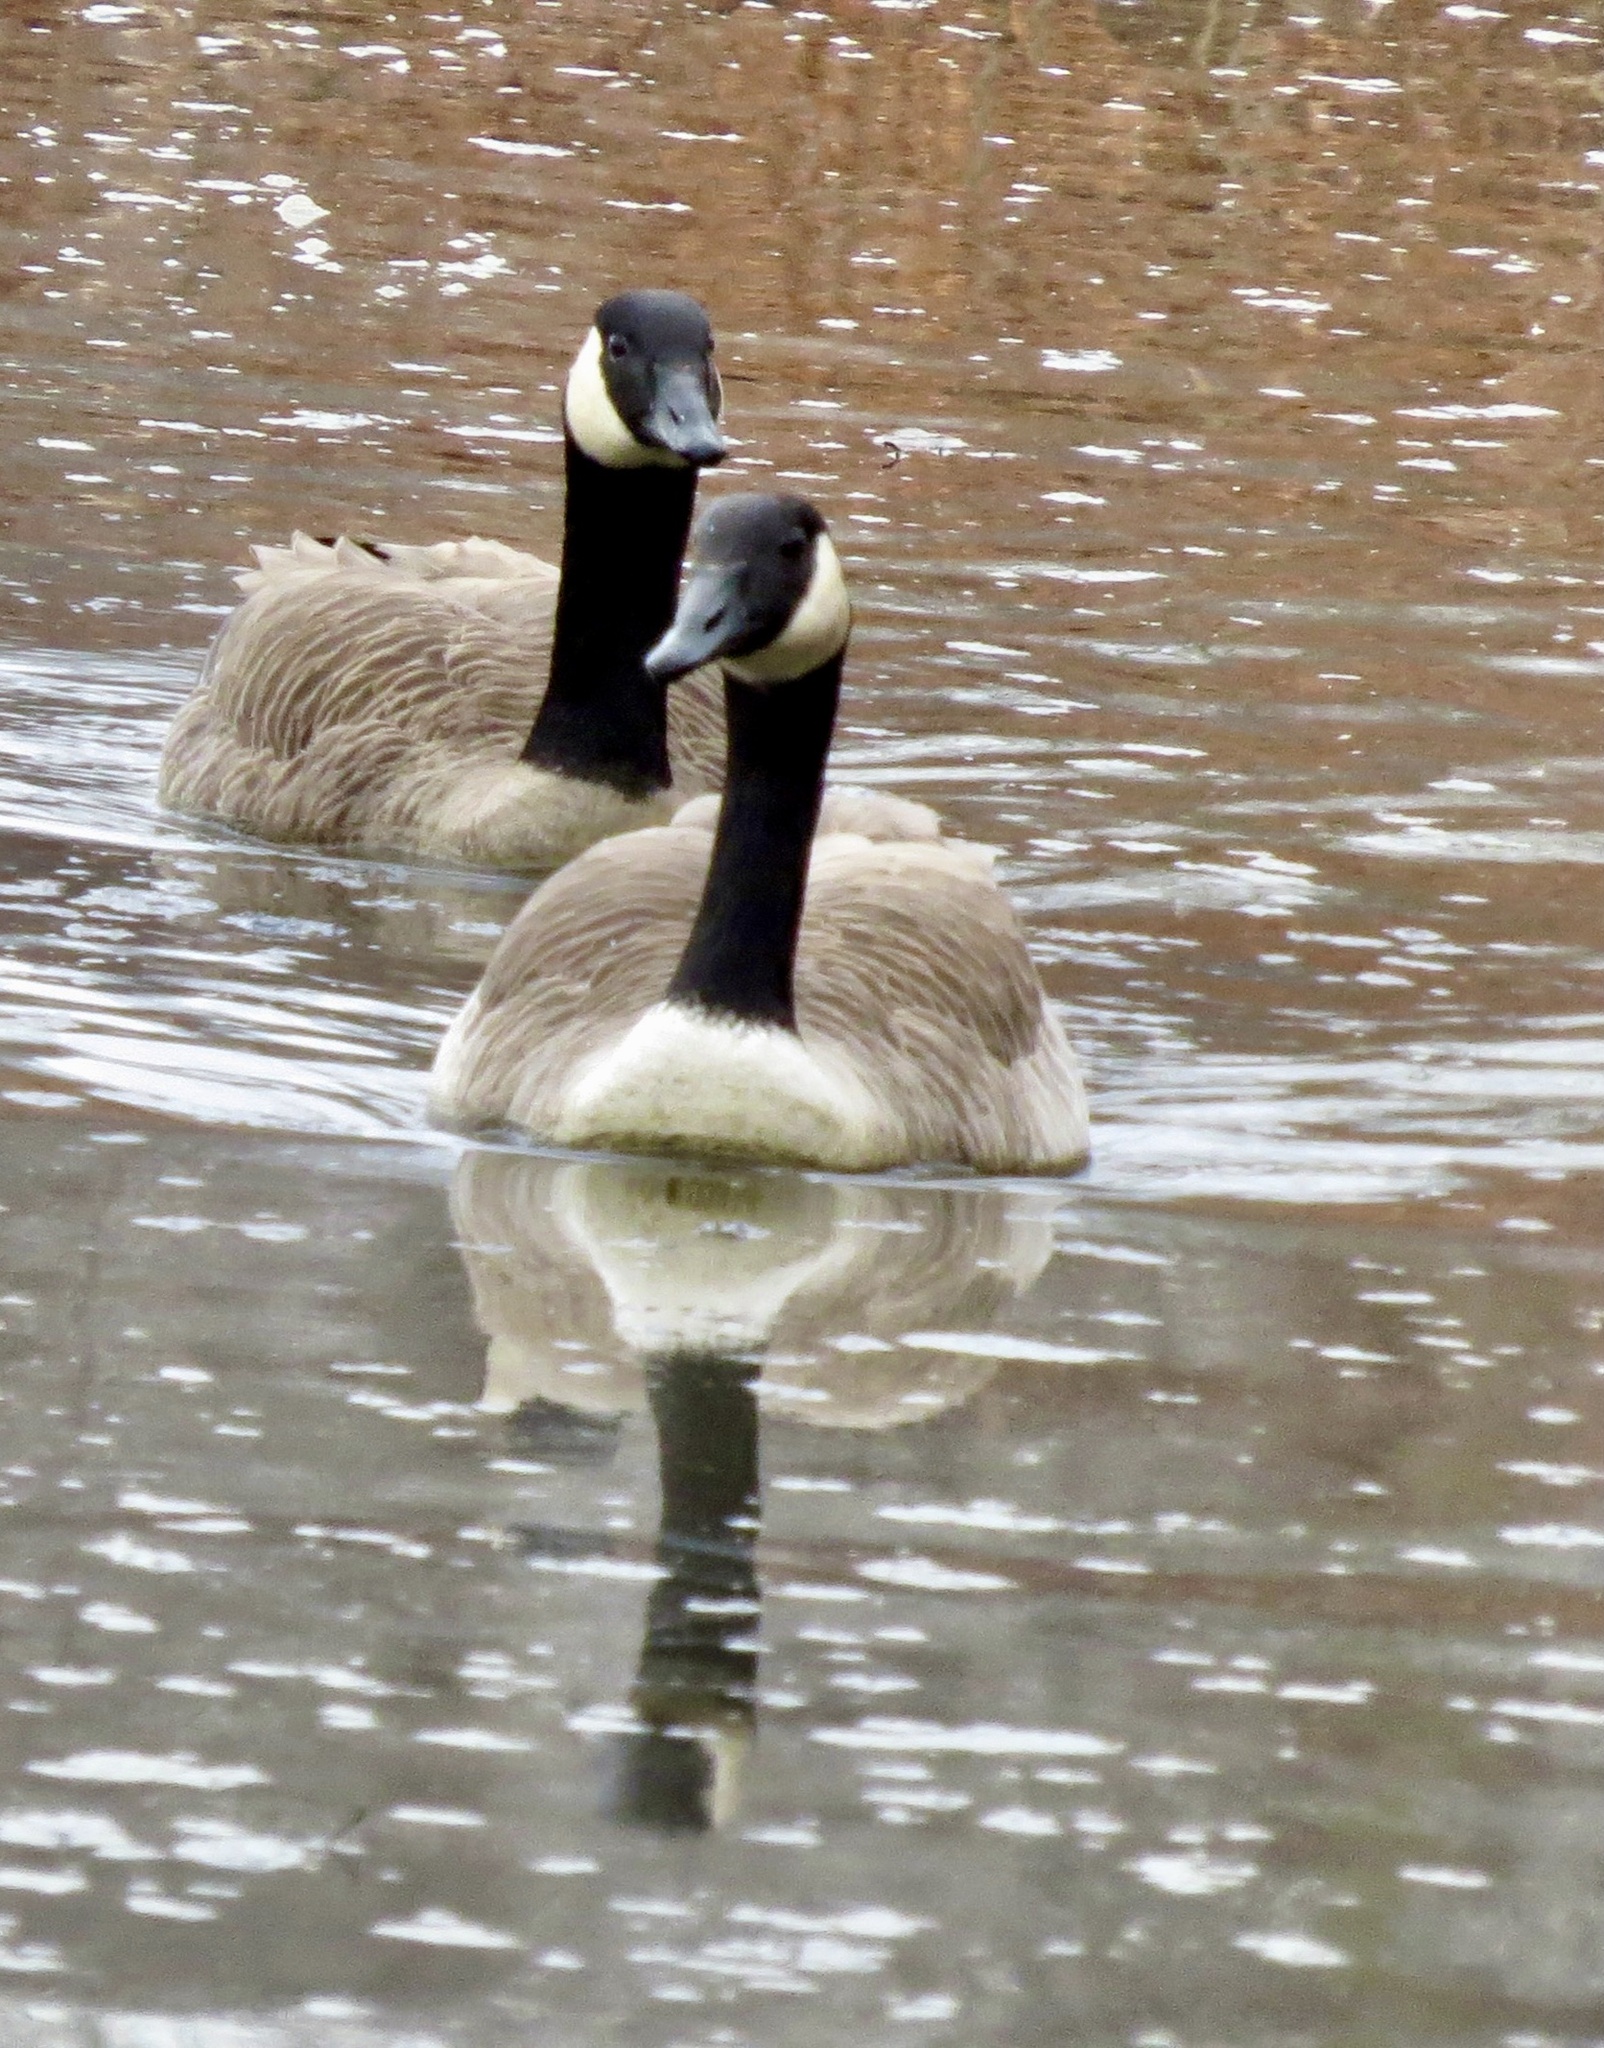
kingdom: Animalia
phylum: Chordata
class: Aves
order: Anseriformes
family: Anatidae
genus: Branta
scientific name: Branta canadensis
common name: Canada goose
